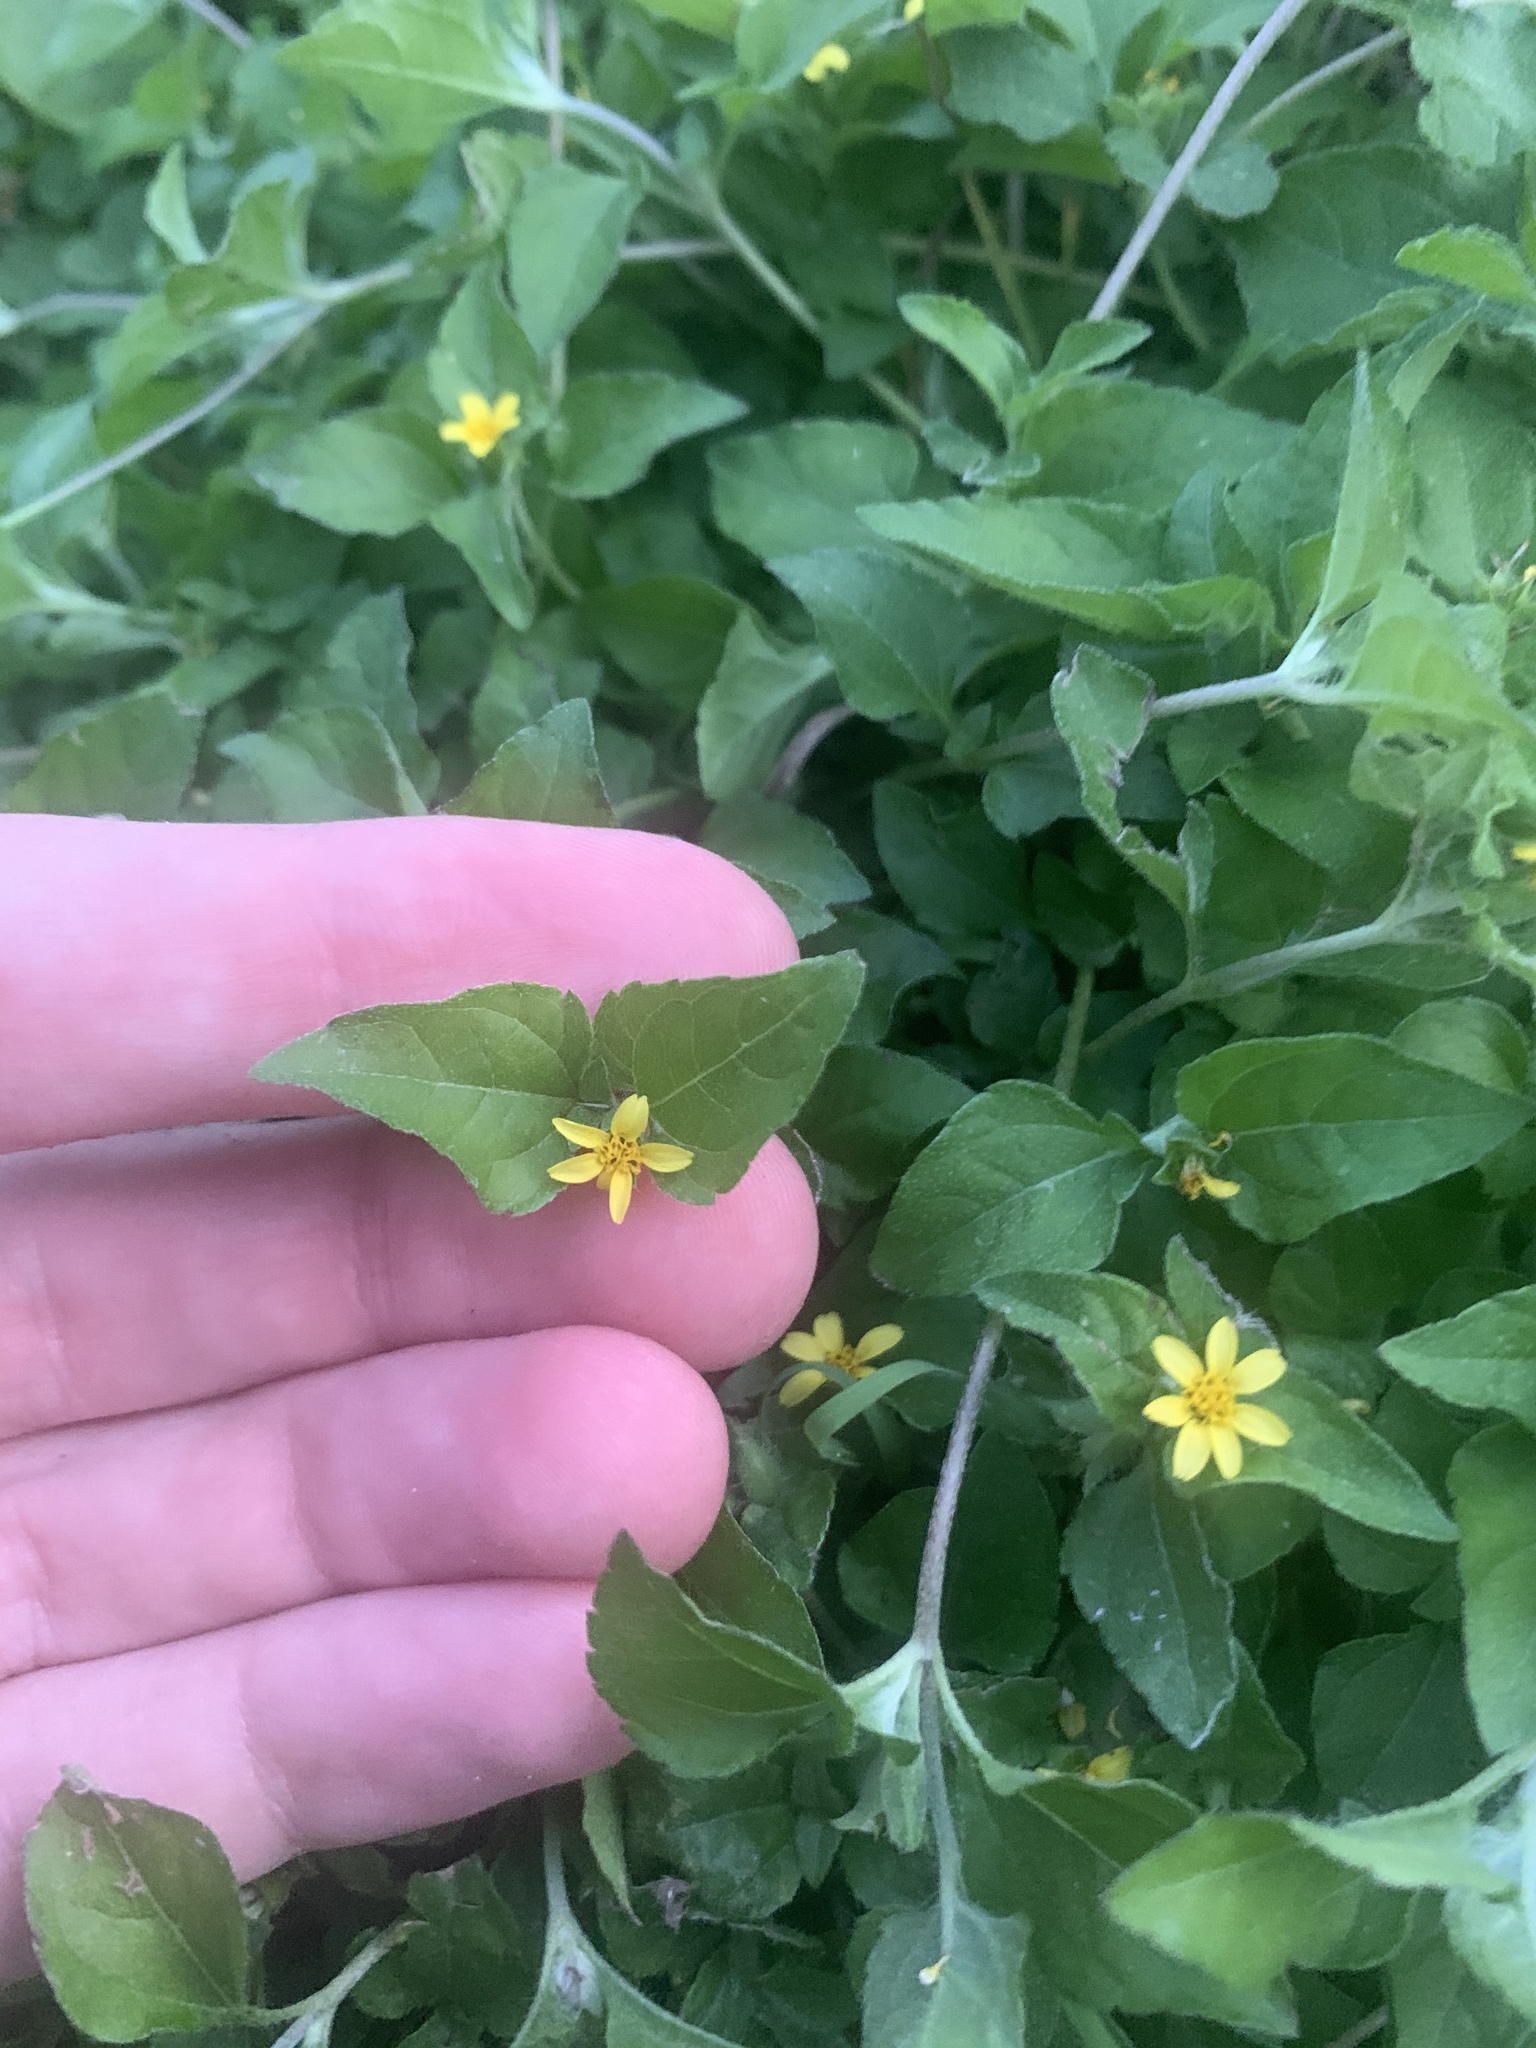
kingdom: Plantae
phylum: Tracheophyta
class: Magnoliopsida
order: Asterales
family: Asteraceae
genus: Calyptocarpus
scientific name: Calyptocarpus vialis
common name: Straggler daisy
